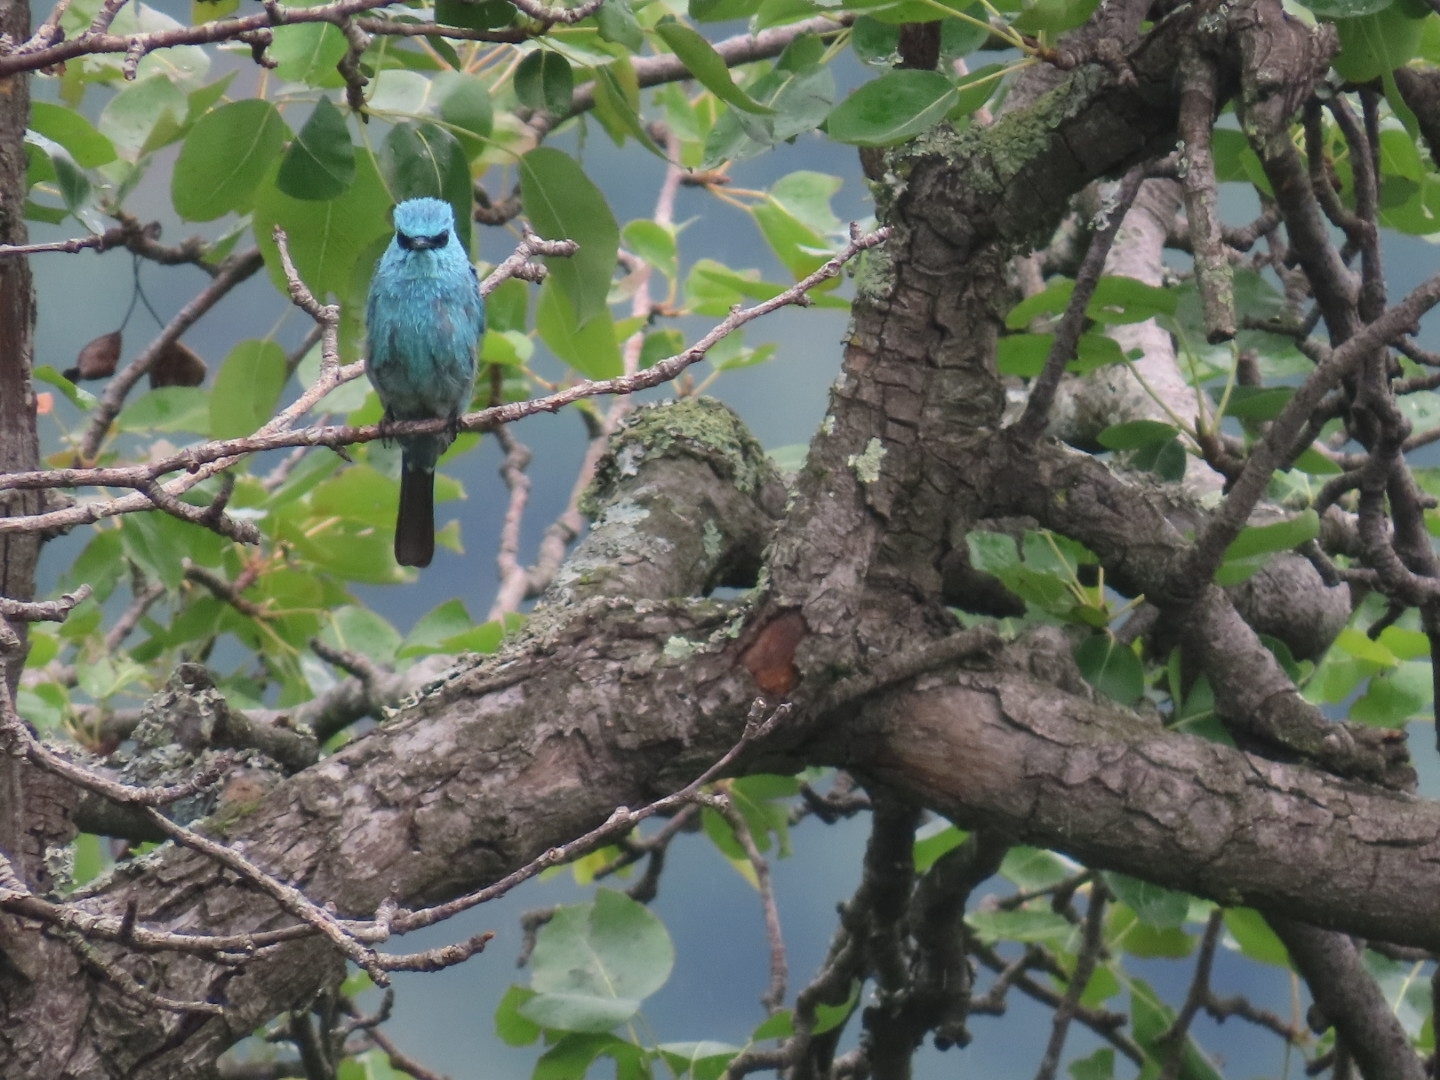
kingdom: Animalia
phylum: Chordata
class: Aves
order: Passeriformes
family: Muscicapidae
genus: Eumyias
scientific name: Eumyias thalassinus
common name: Verditer flycatcher
